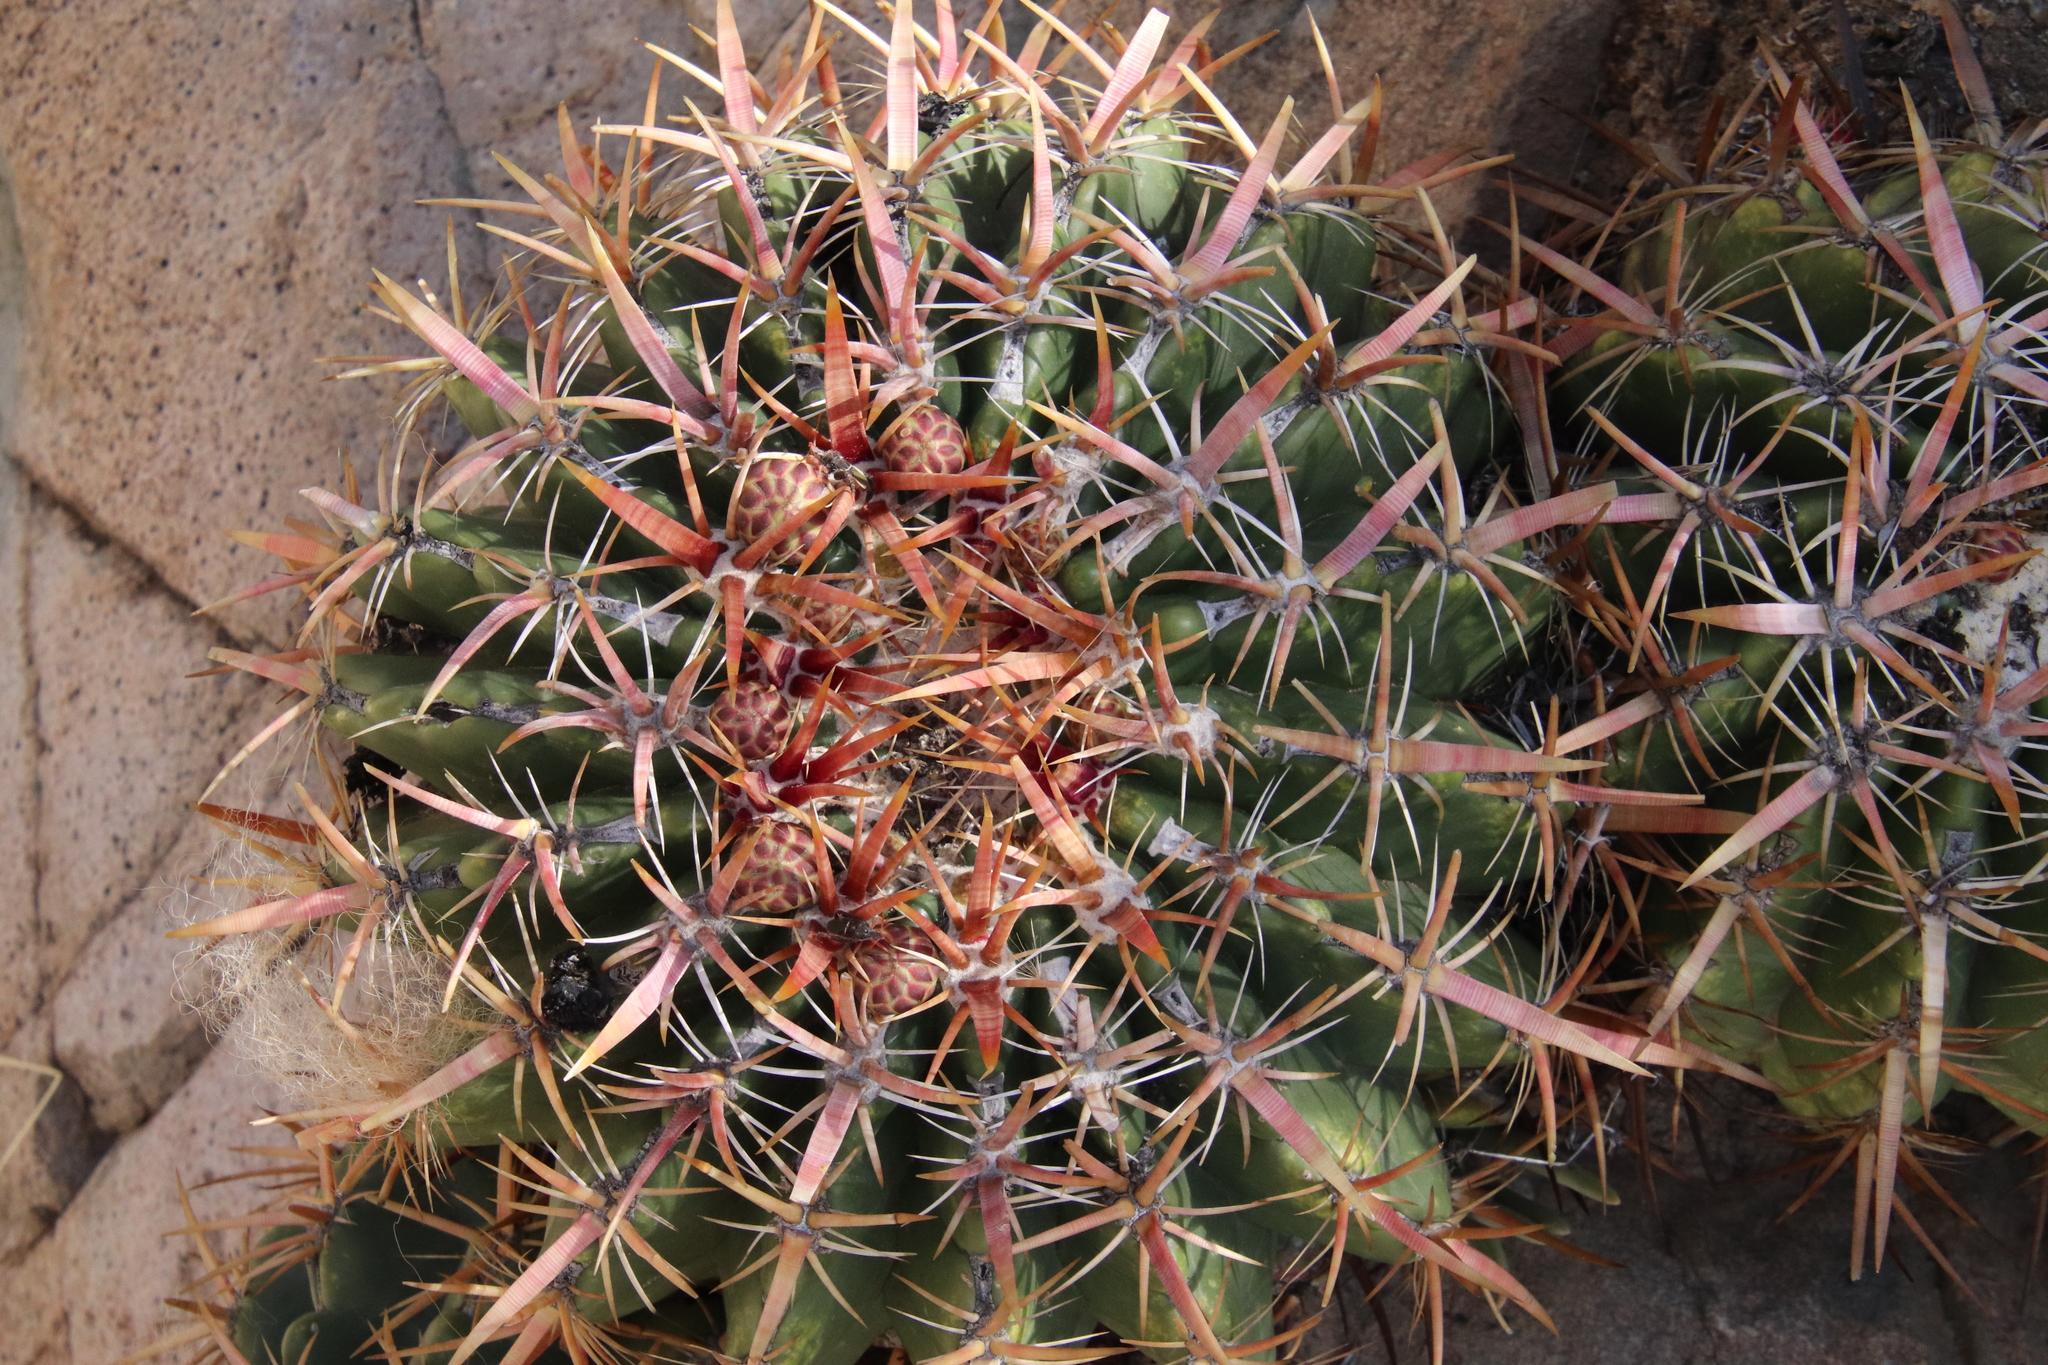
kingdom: Plantae
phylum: Tracheophyta
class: Magnoliopsida
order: Caryophyllales
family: Cactaceae
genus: Ferocactus
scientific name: Ferocactus viridescens
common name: San diego barrel cactus
